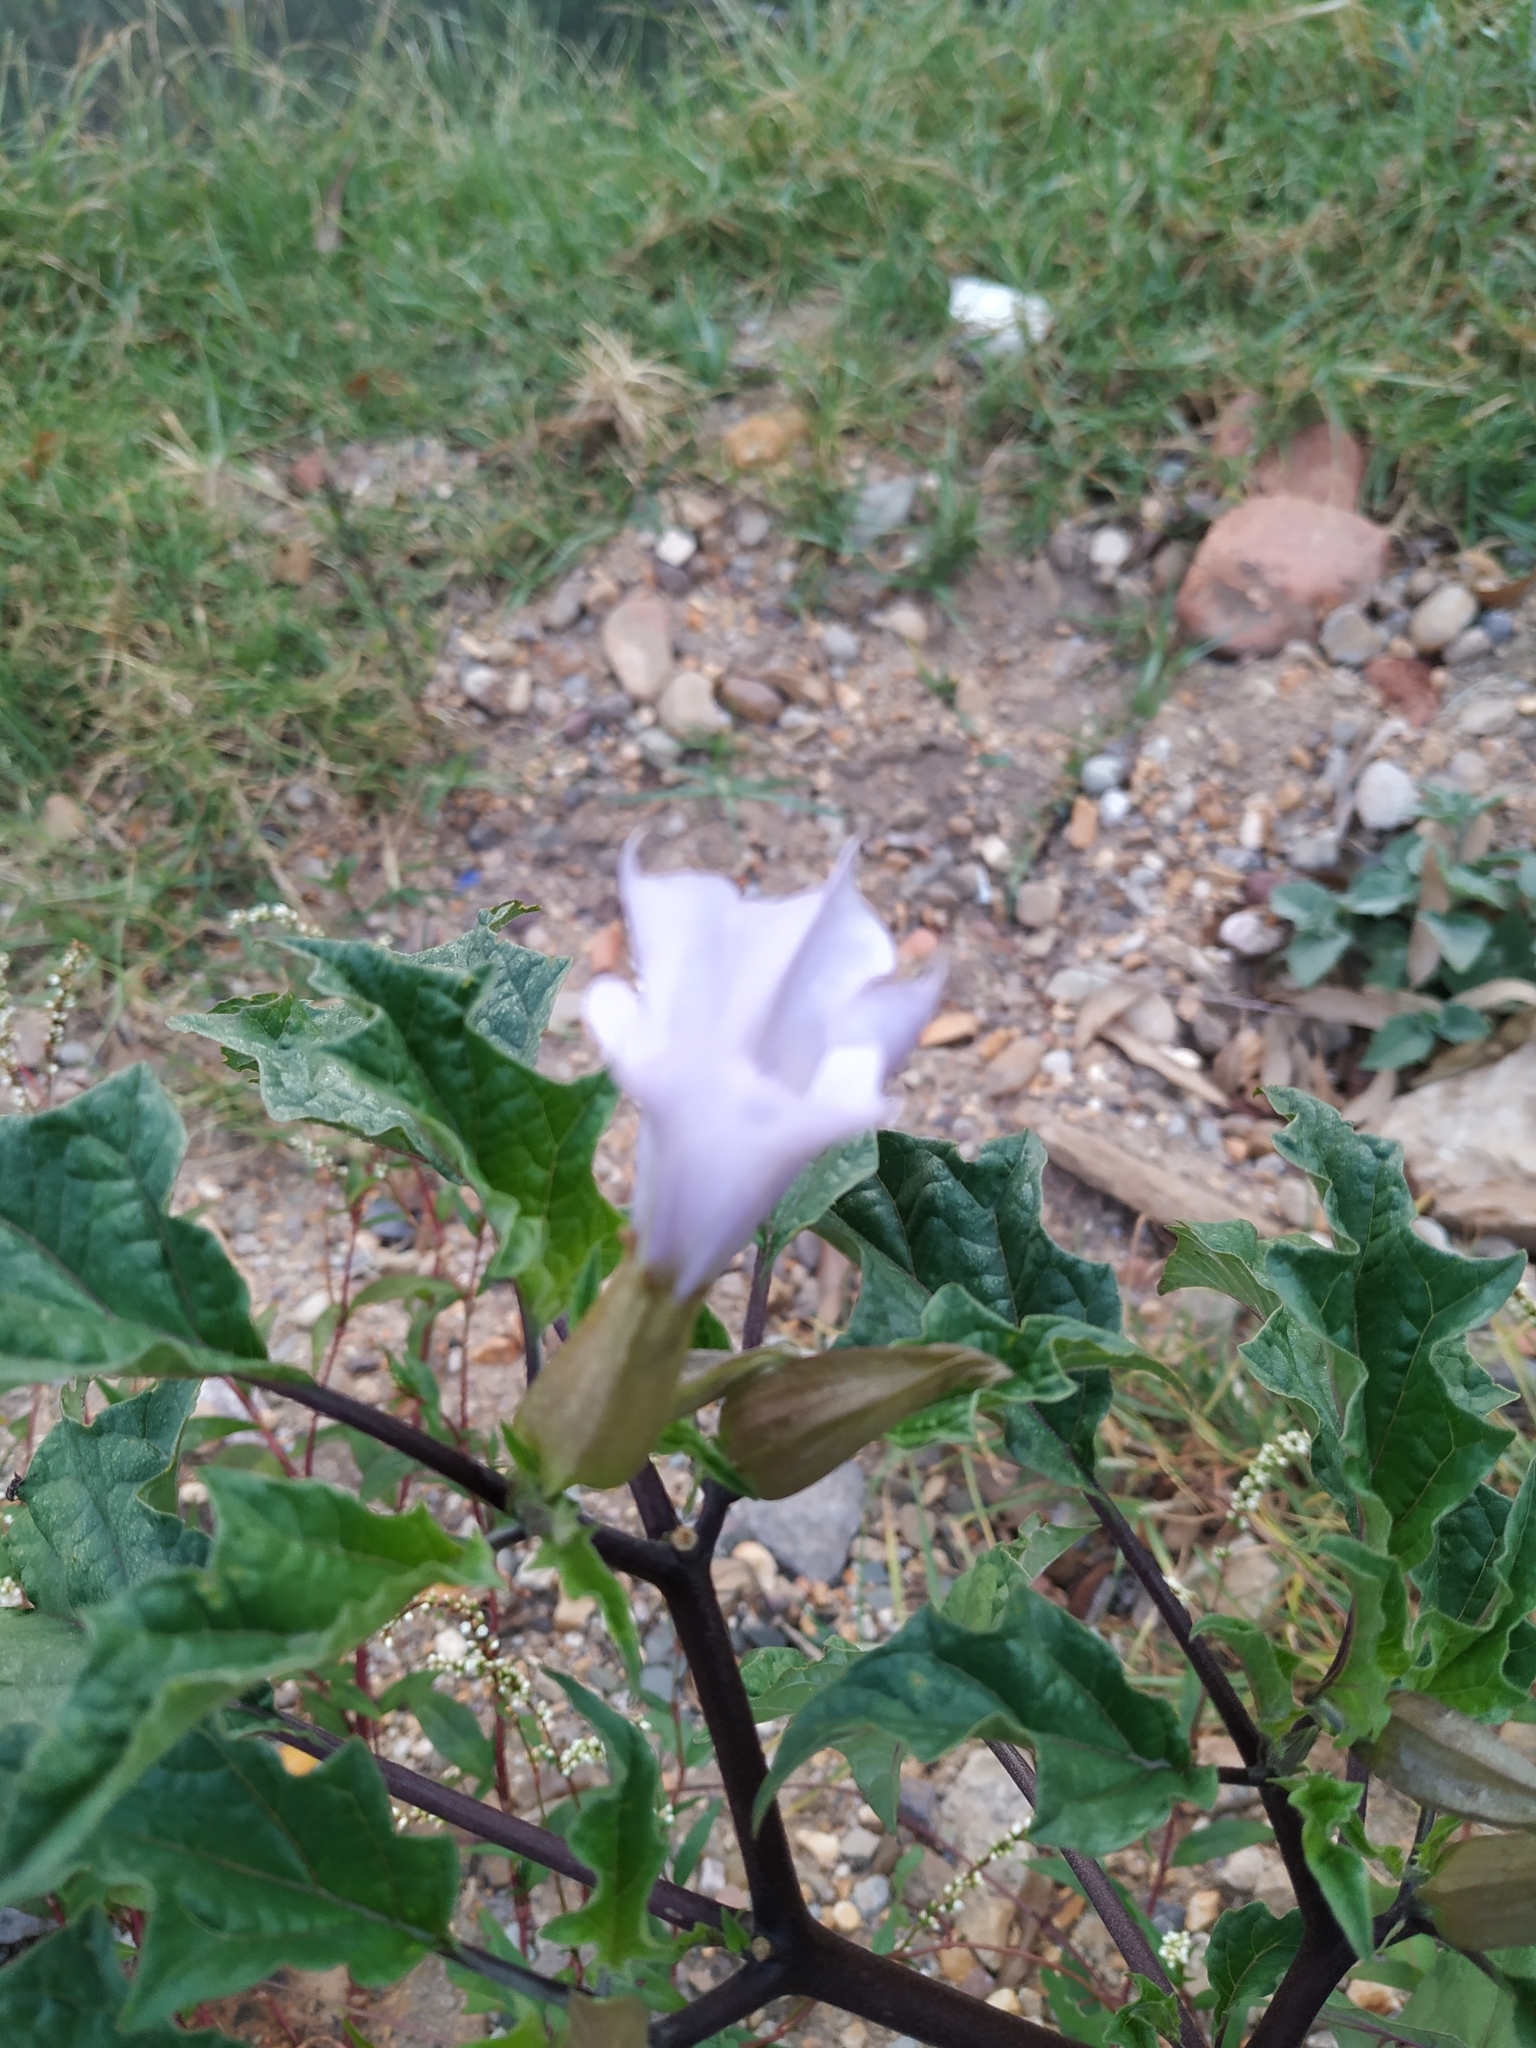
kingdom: Plantae
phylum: Tracheophyta
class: Magnoliopsida
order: Solanales
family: Solanaceae
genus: Datura
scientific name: Datura stramonium
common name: Thorn-apple
